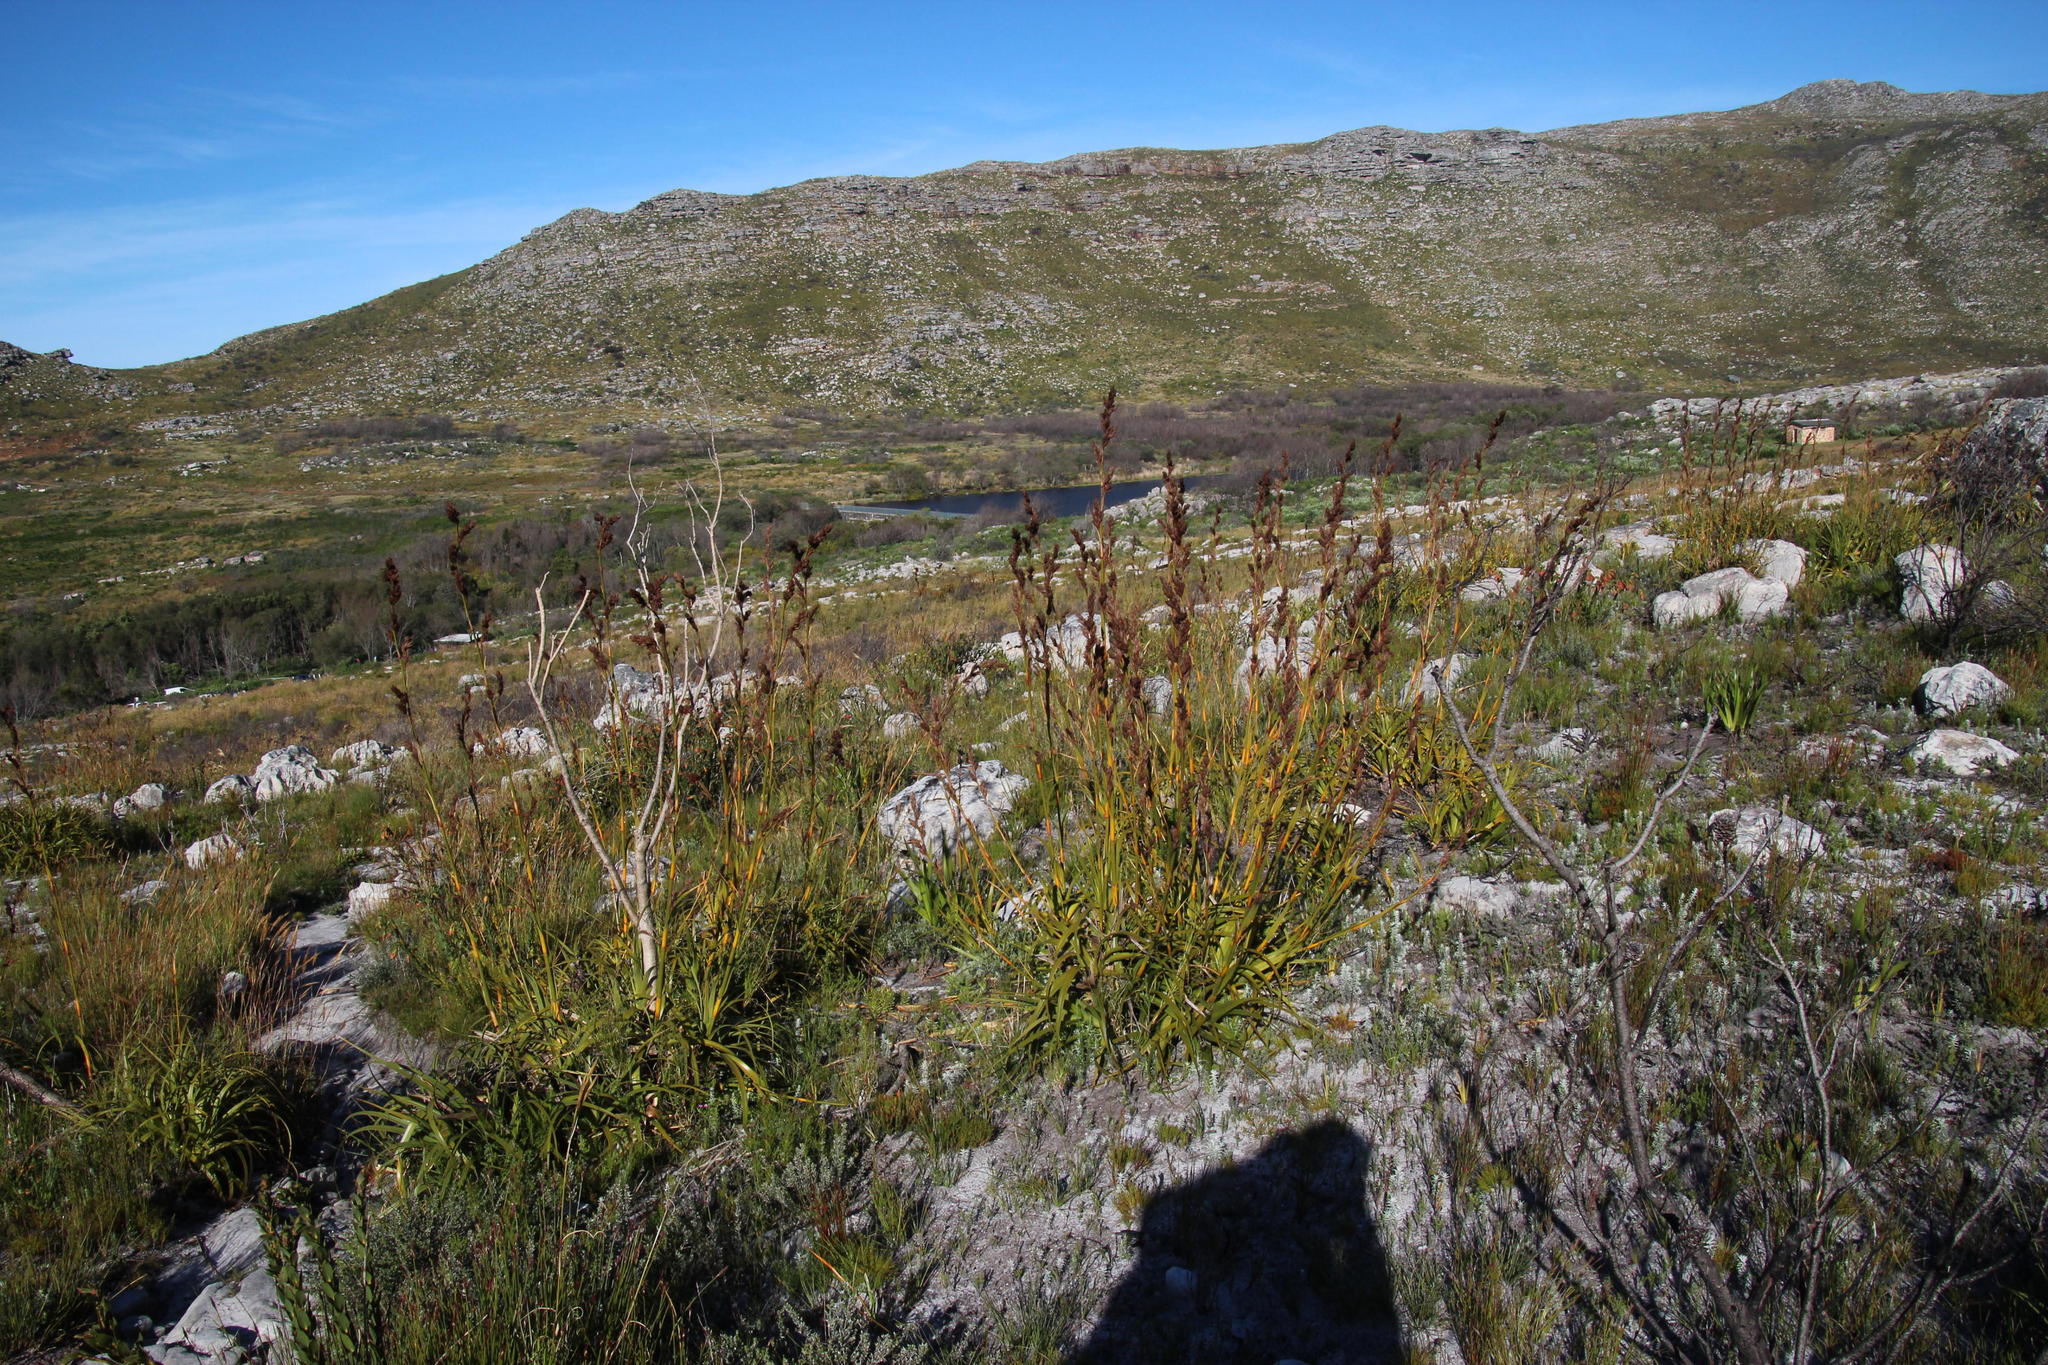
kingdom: Plantae
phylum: Tracheophyta
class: Liliopsida
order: Poales
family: Cyperaceae
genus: Tetraria
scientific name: Tetraria thermalis
